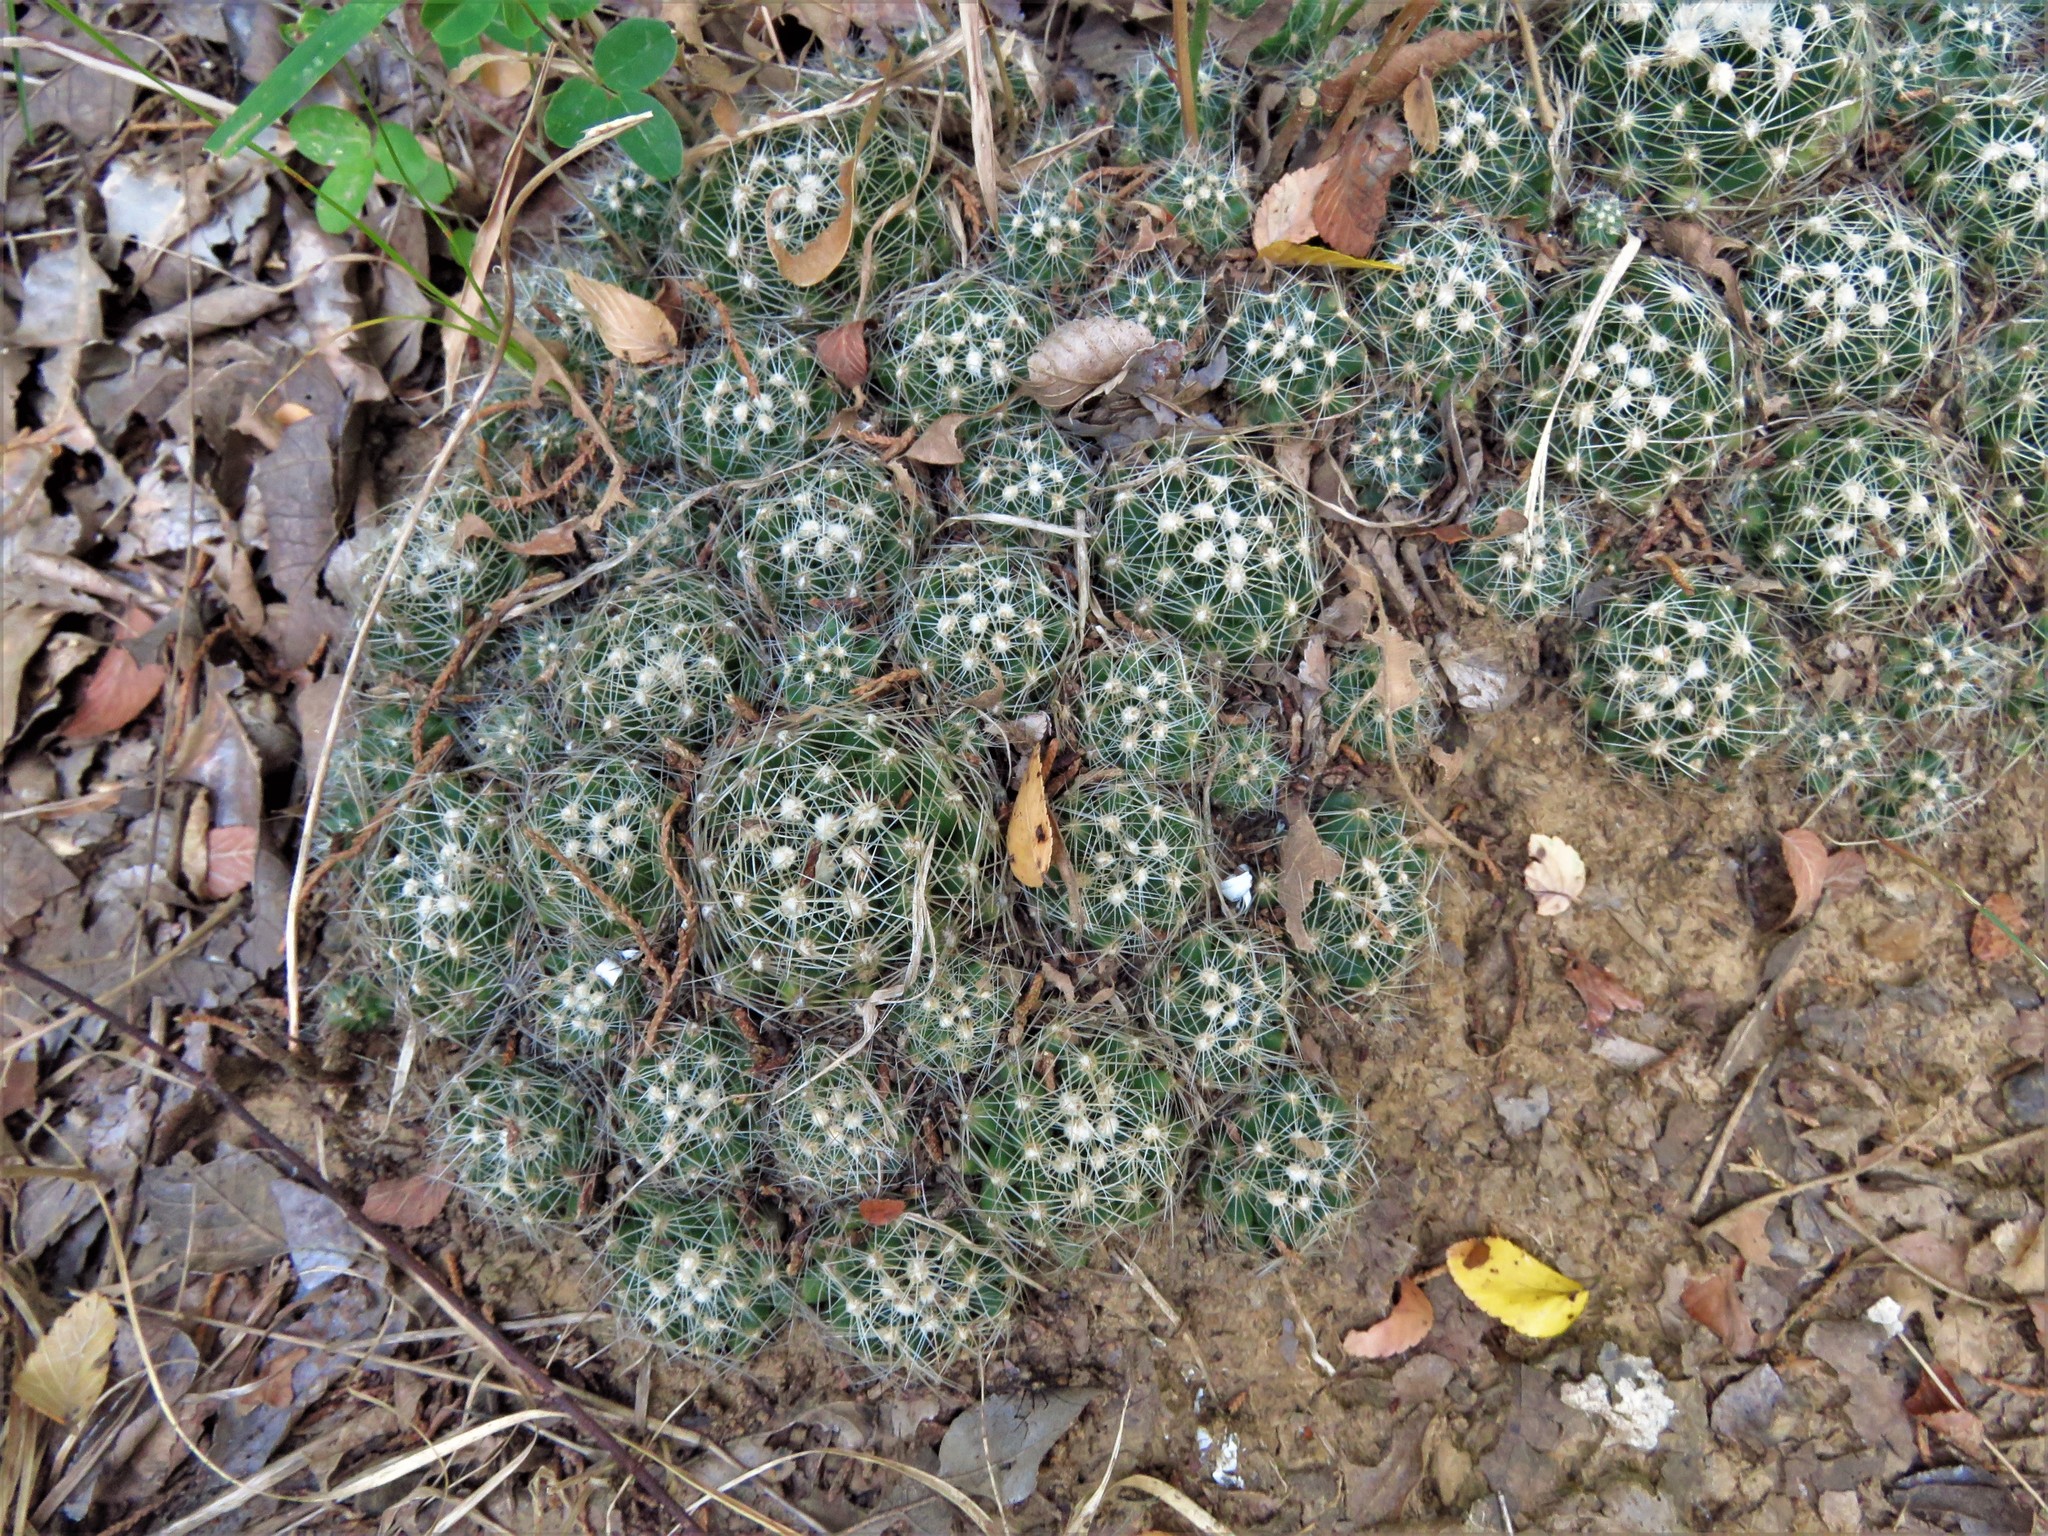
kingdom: Plantae
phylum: Tracheophyta
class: Magnoliopsida
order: Caryophyllales
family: Cactaceae
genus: Pelecyphora
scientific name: Pelecyphora missouriensis
